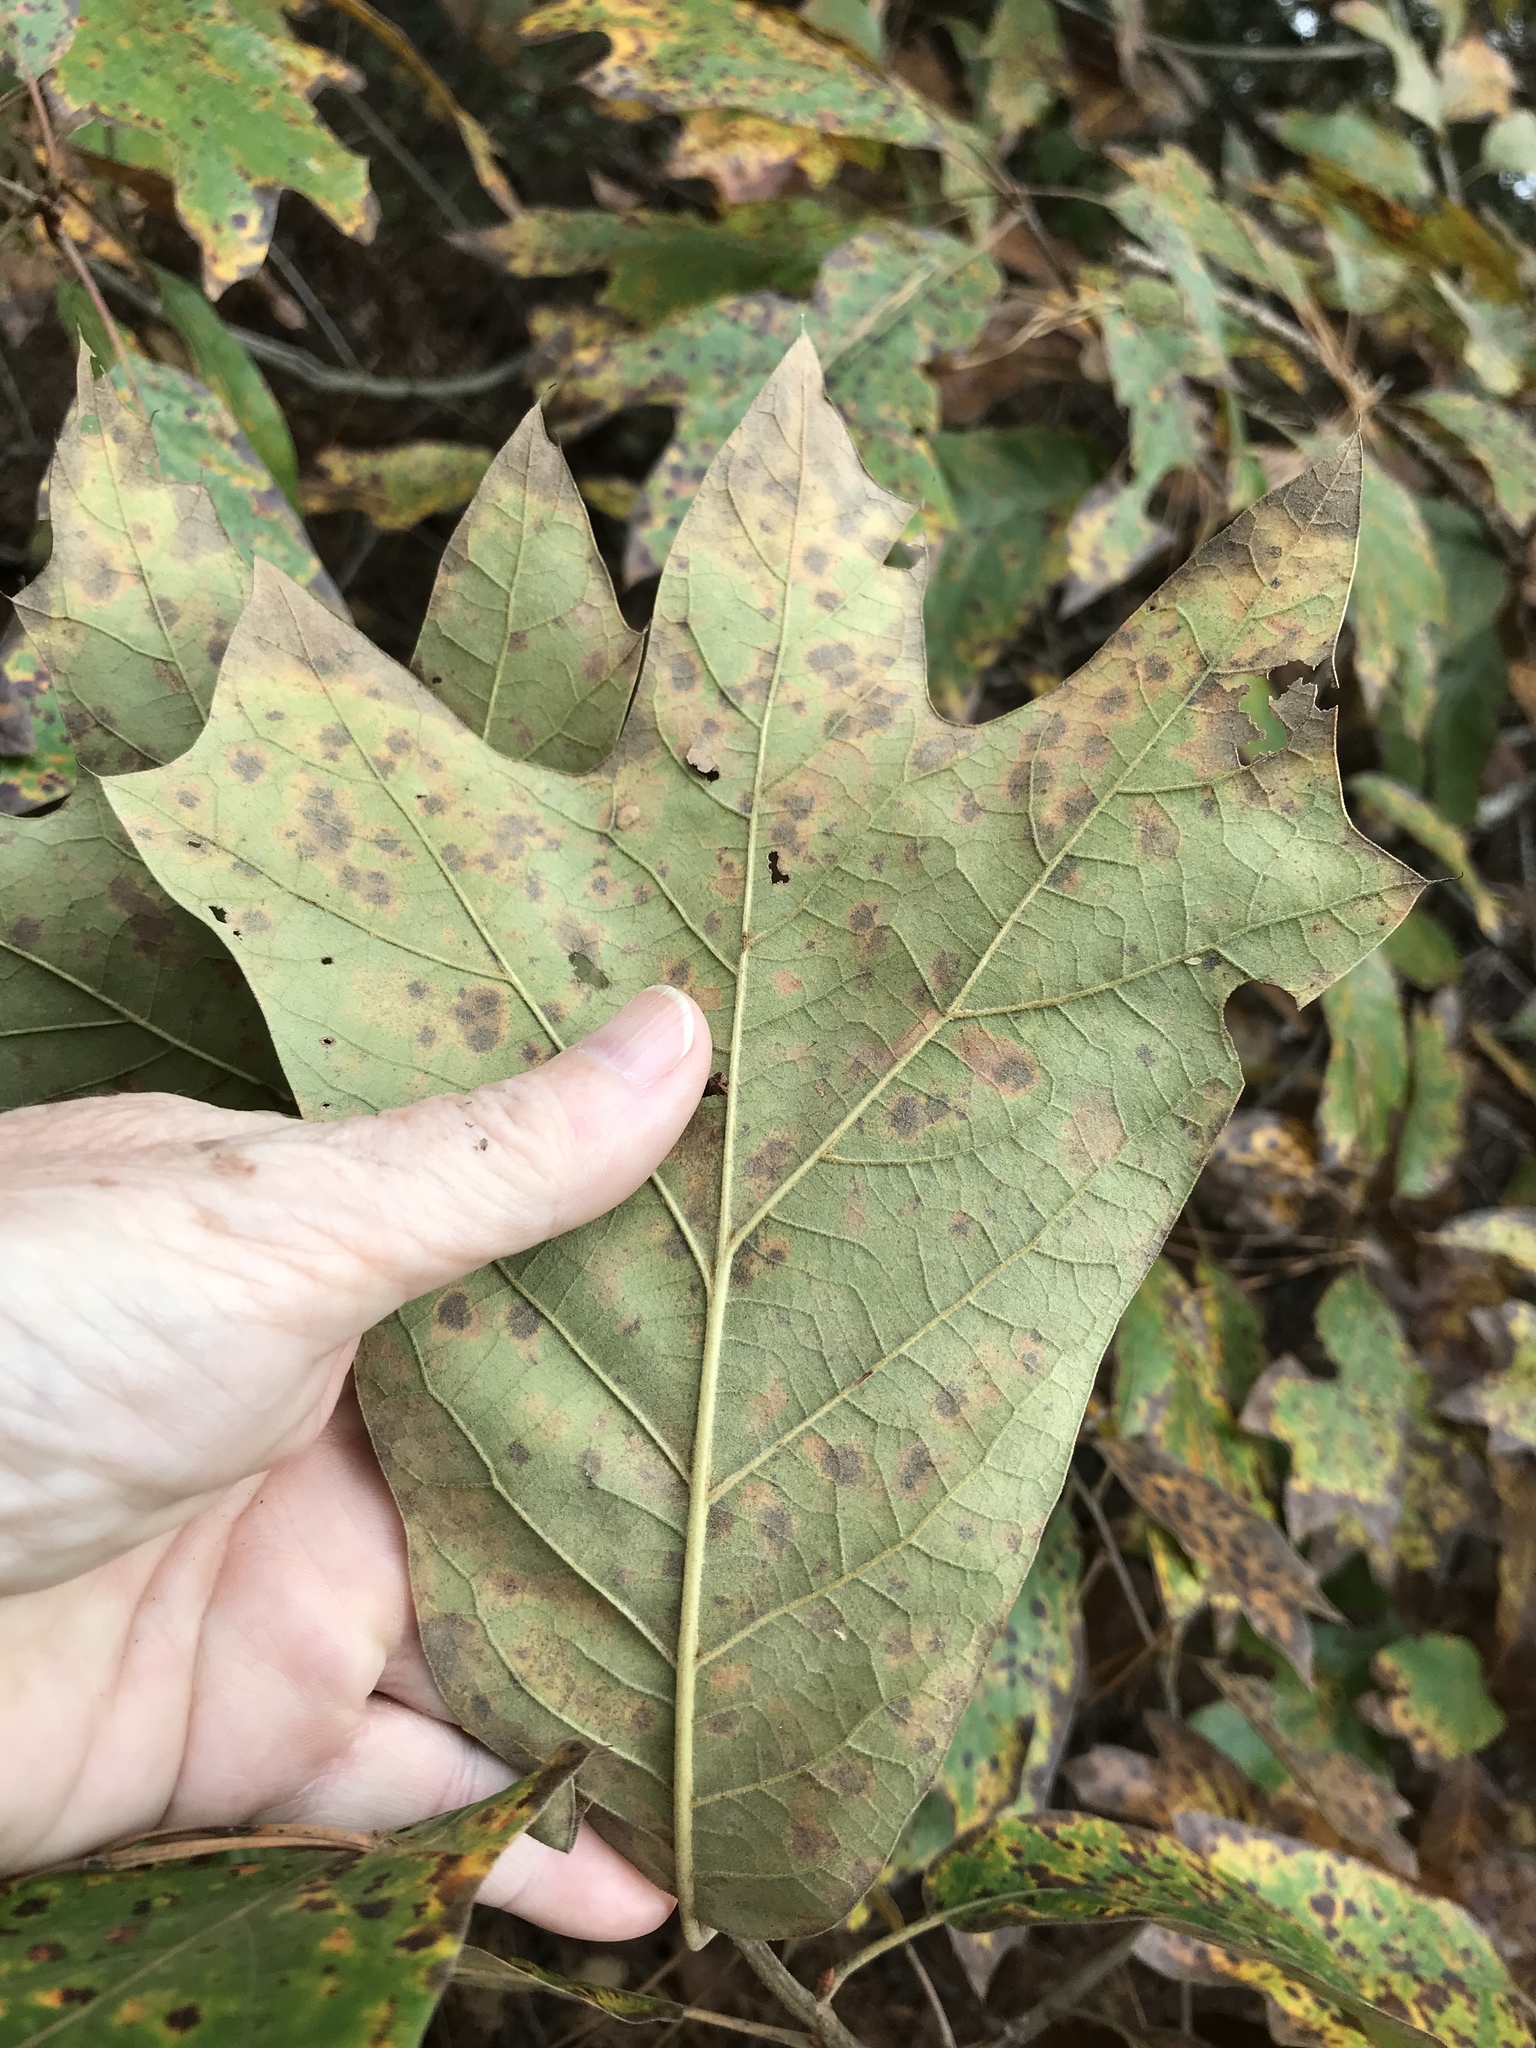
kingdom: Plantae
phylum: Tracheophyta
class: Magnoliopsida
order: Fagales
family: Fagaceae
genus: Quercus
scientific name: Quercus marilandica
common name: Blackjack oak
